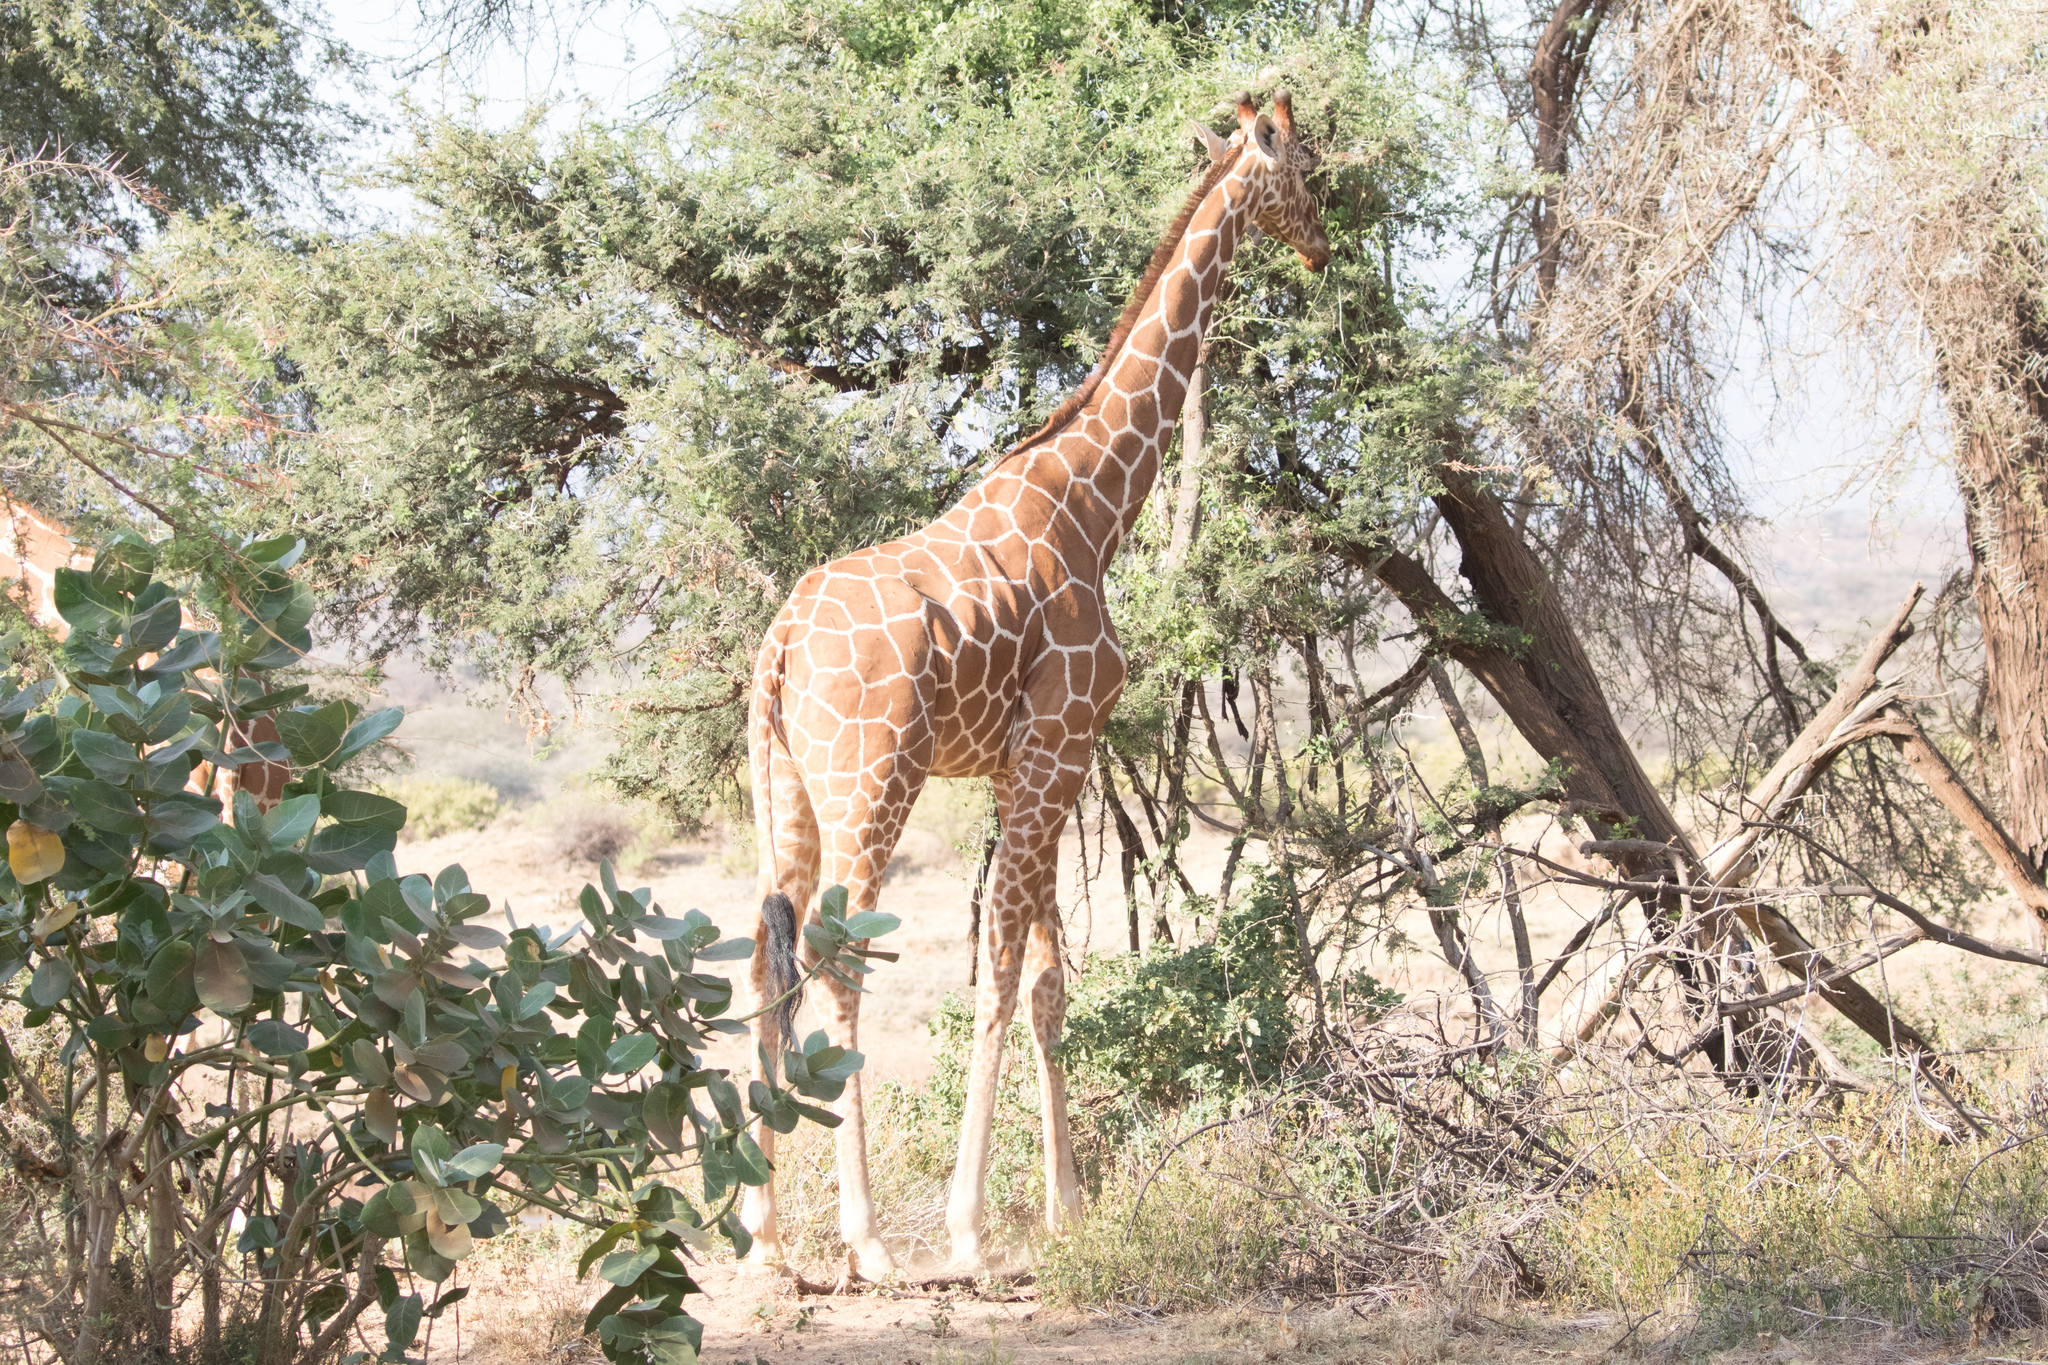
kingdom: Animalia
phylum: Chordata
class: Mammalia
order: Artiodactyla
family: Giraffidae
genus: Giraffa
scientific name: Giraffa reticulata
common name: Reticulated giraffe
